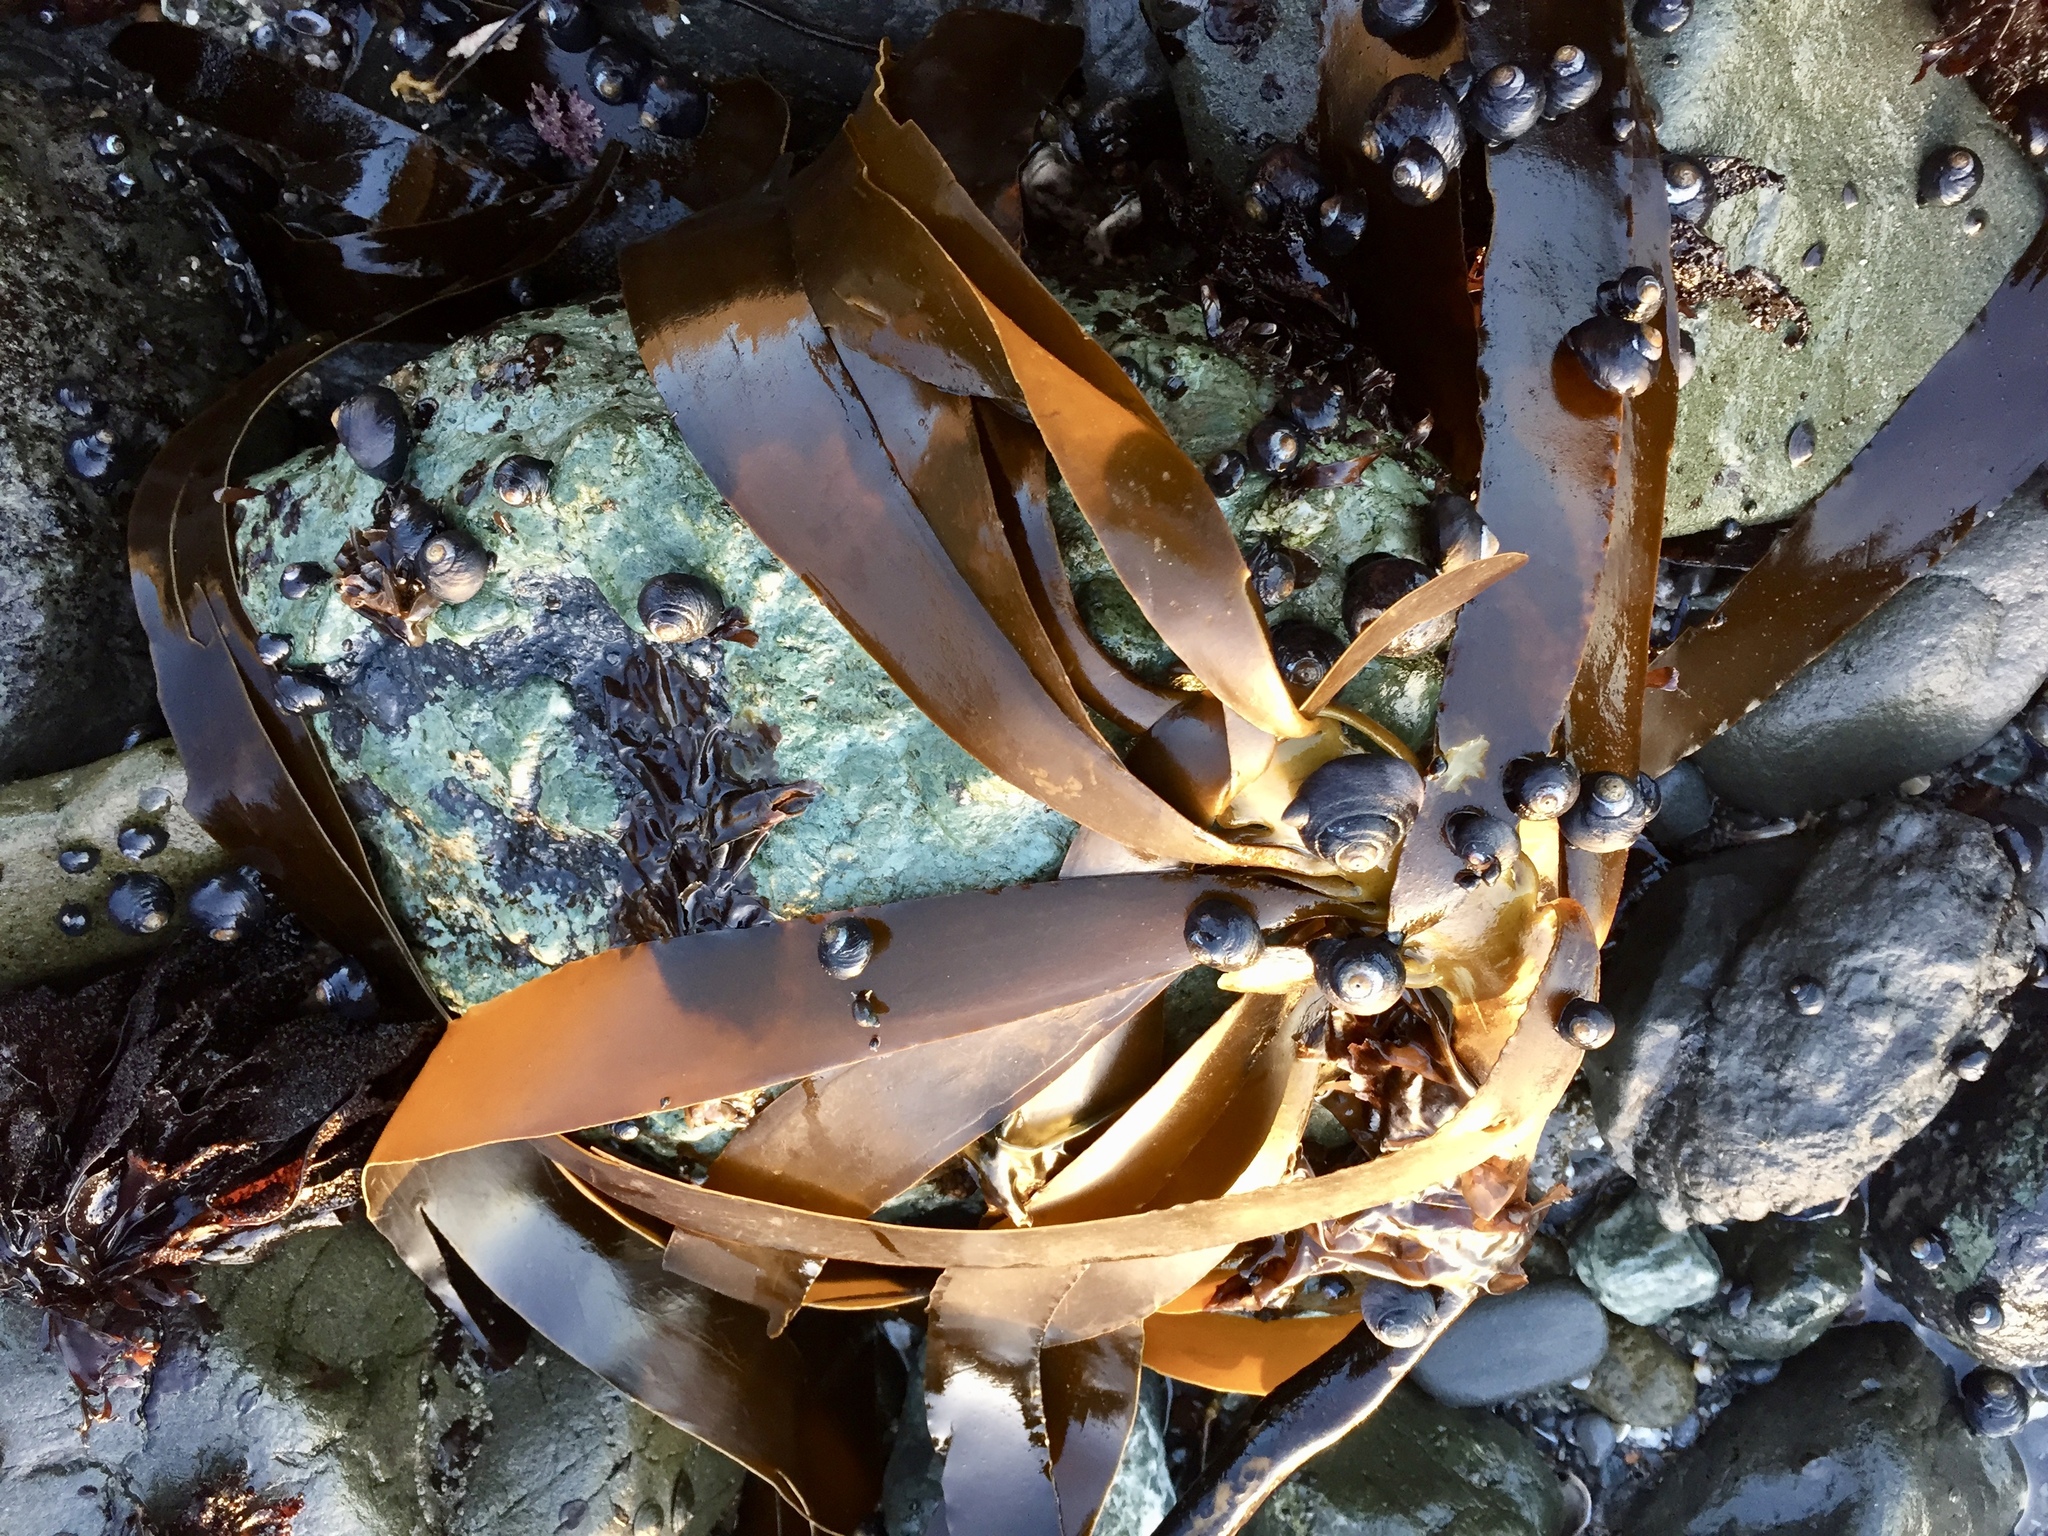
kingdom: Chromista
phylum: Ochrophyta
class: Phaeophyceae
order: Laminariales
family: Alariaceae
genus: Pterygophora
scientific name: Pterygophora californica
